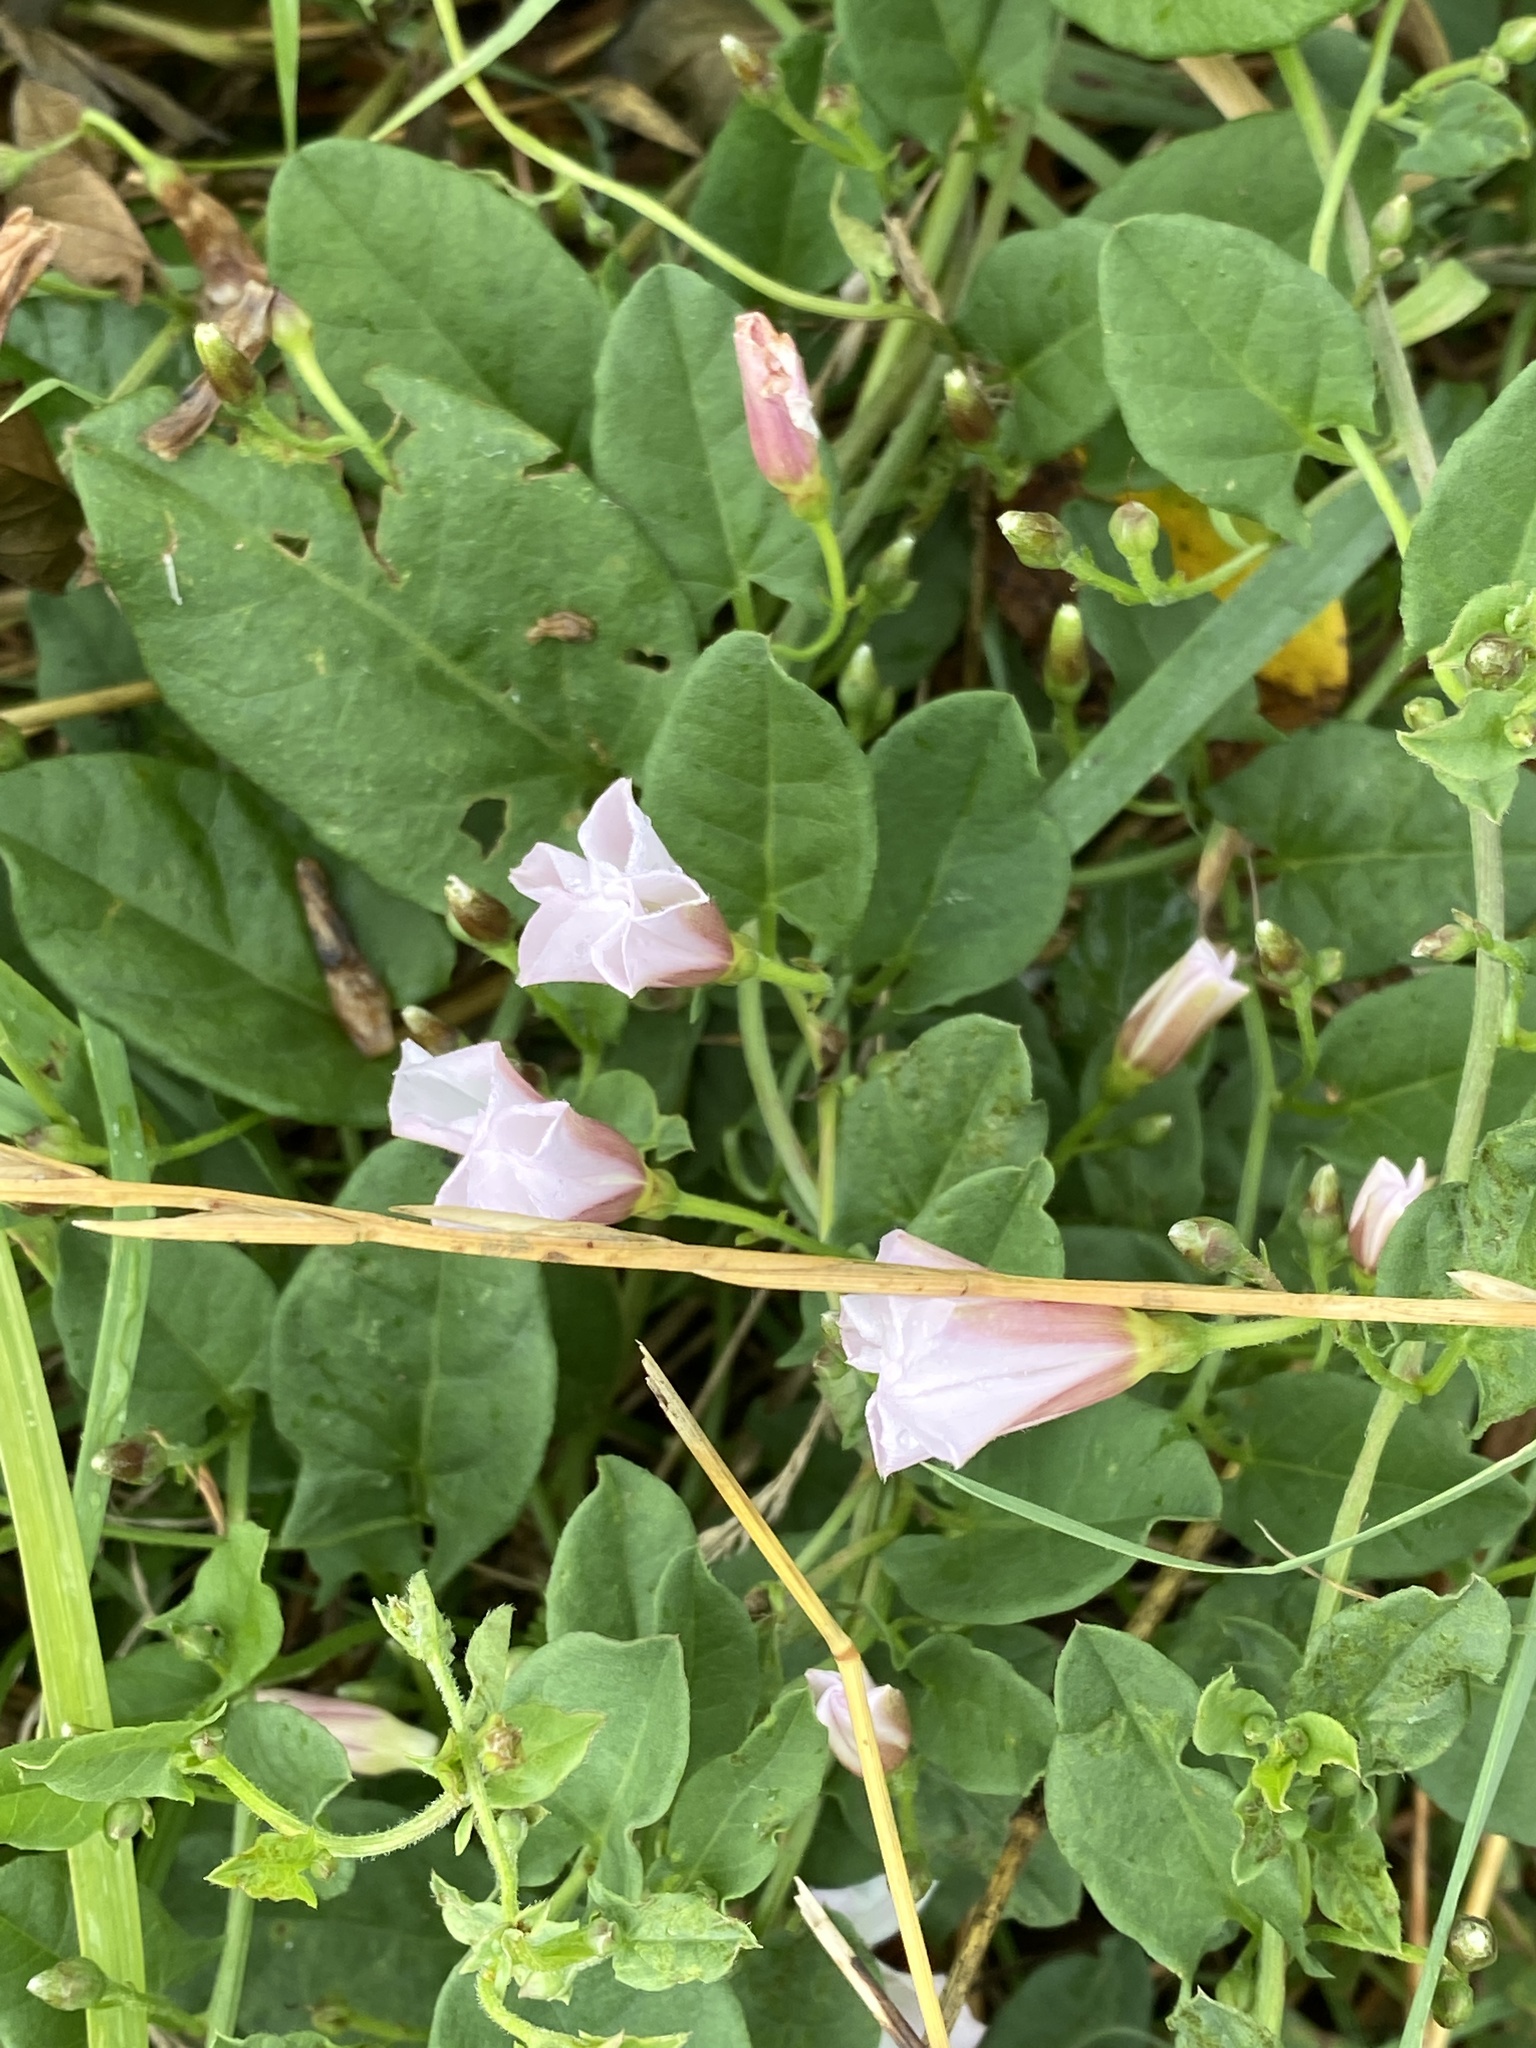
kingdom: Plantae
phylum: Tracheophyta
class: Magnoliopsida
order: Solanales
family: Convolvulaceae
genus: Convolvulus
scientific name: Convolvulus arvensis
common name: Field bindweed
